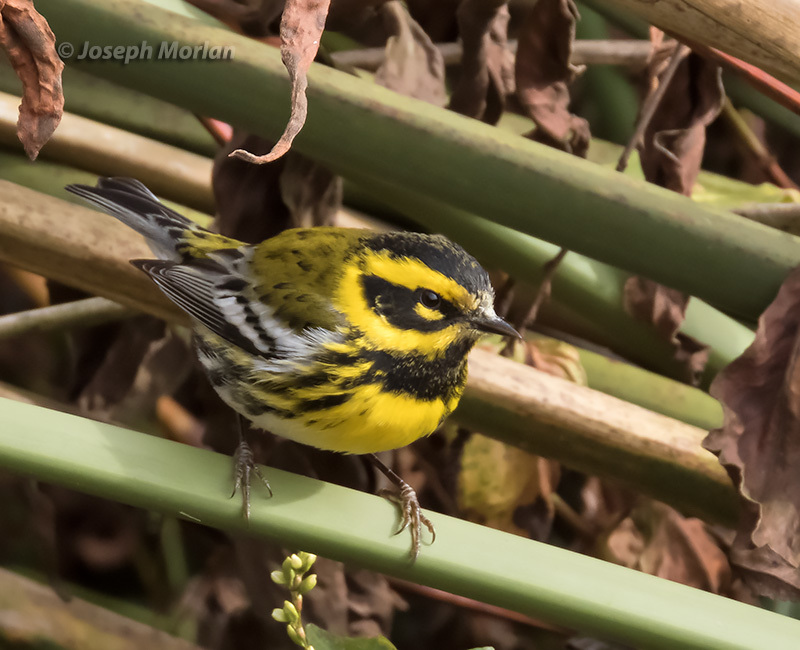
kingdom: Animalia
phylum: Chordata
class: Aves
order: Passeriformes
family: Parulidae
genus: Setophaga
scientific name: Setophaga townsendi
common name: Townsend's warbler
